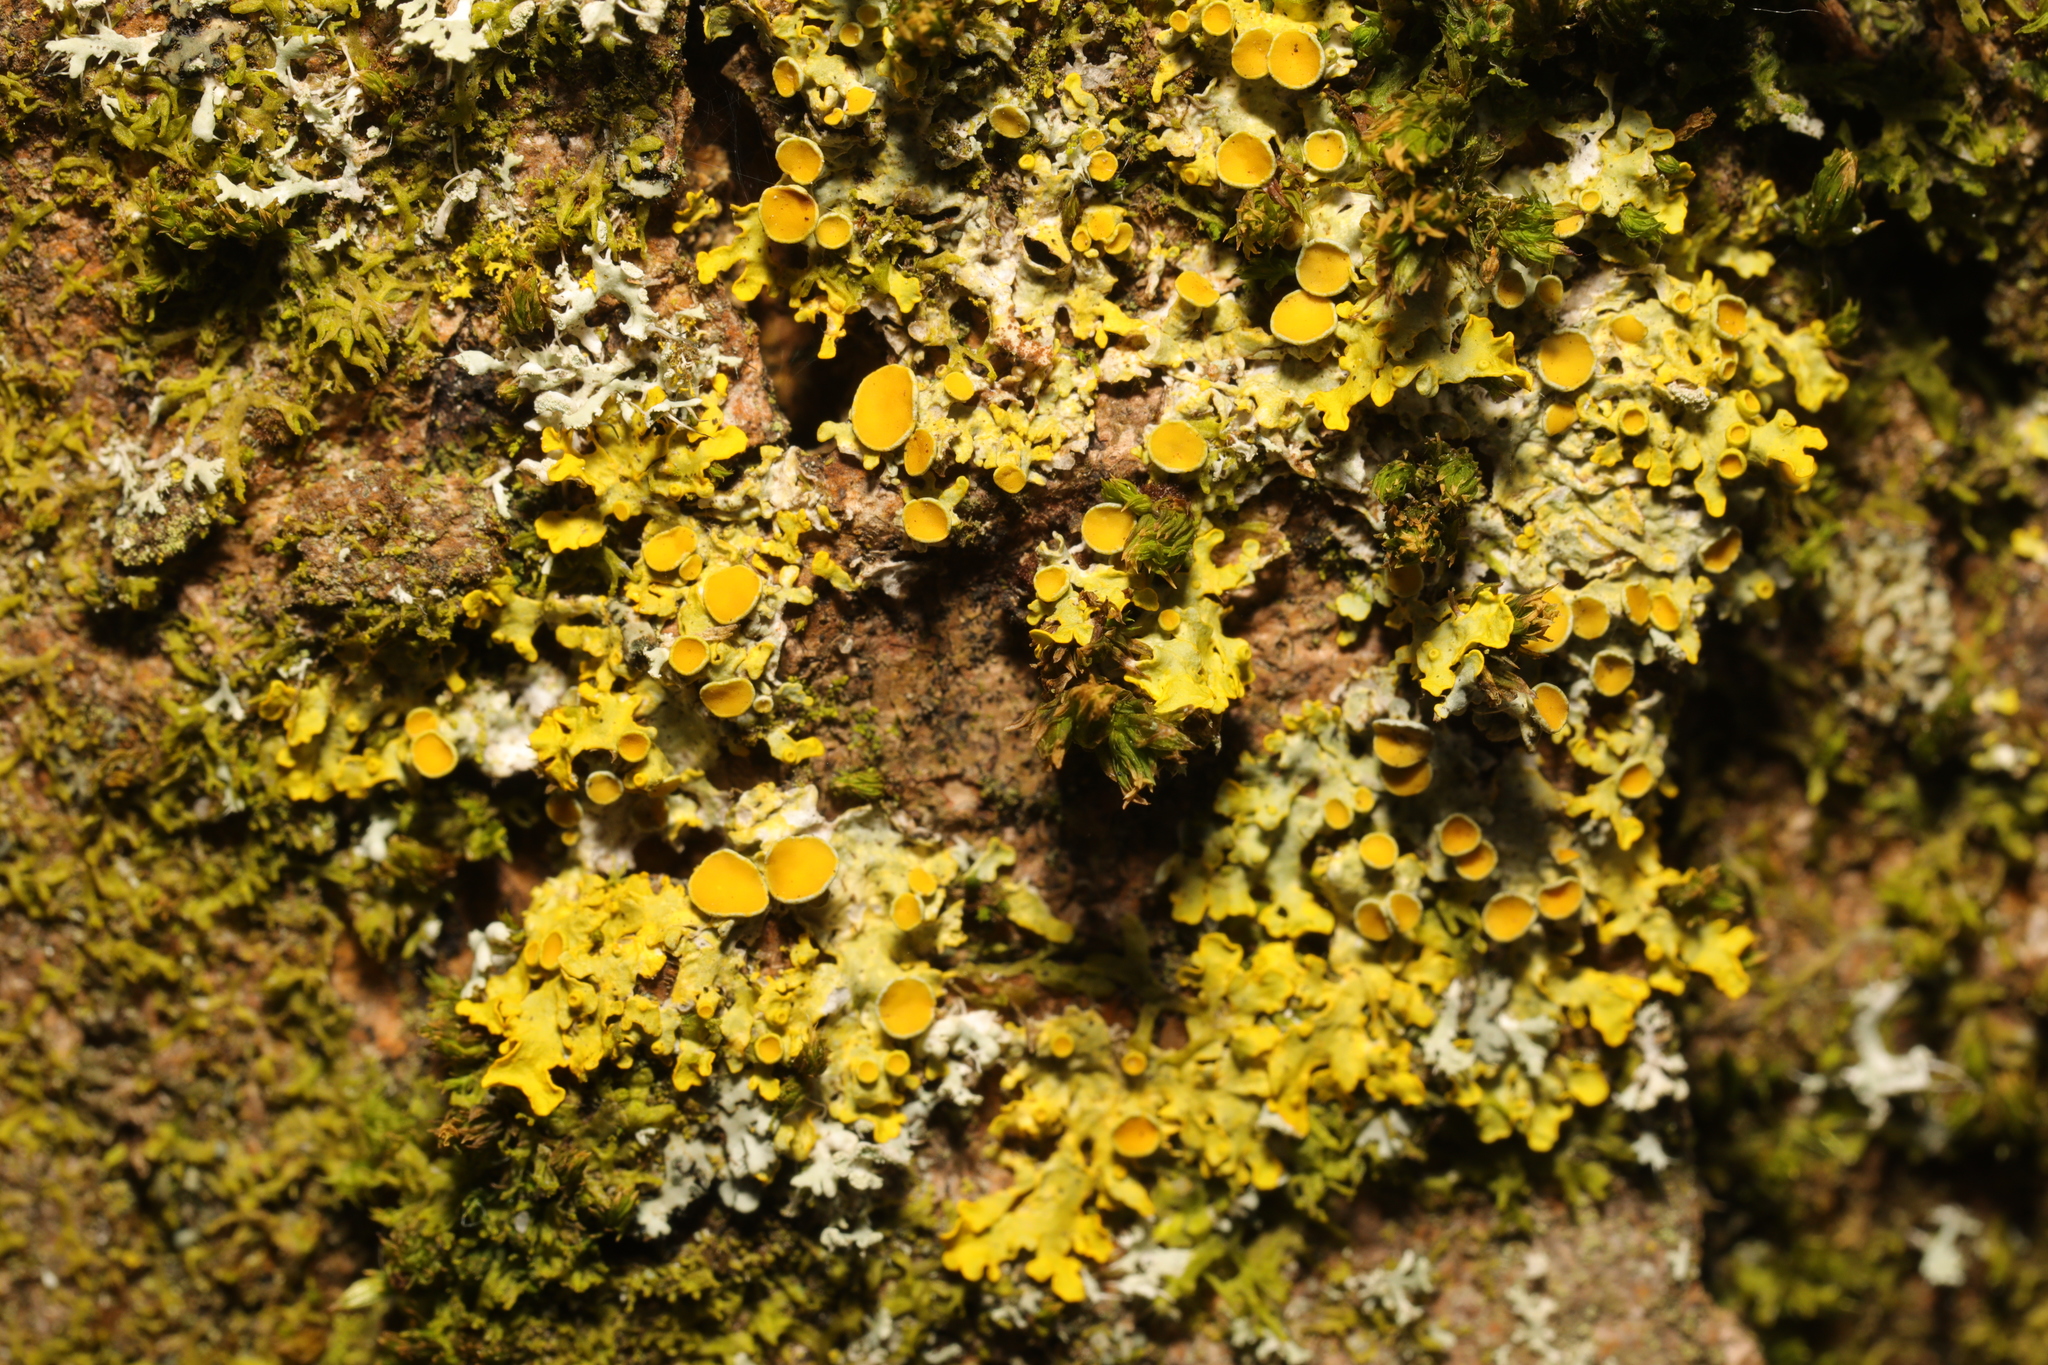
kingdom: Fungi
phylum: Ascomycota
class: Lecanoromycetes
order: Teloschistales
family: Teloschistaceae
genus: Xanthoria
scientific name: Xanthoria parietina
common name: Common orange lichen
